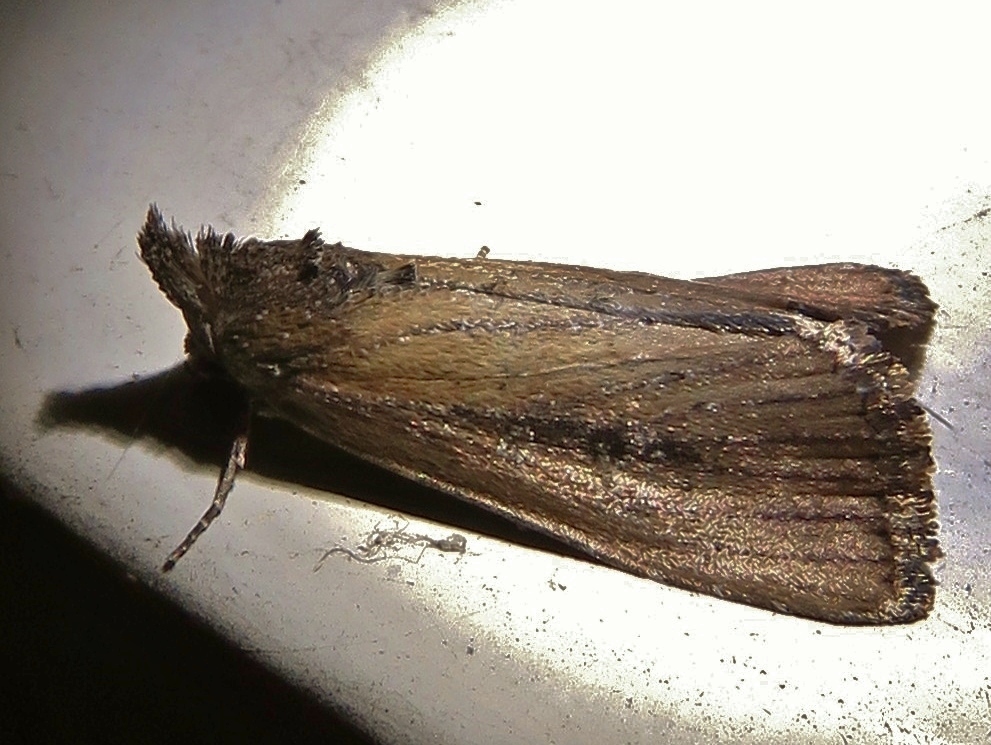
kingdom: Animalia
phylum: Arthropoda
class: Insecta
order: Lepidoptera
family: Noctuidae
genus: Condica
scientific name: Condica videns
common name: White-dotted groundling
